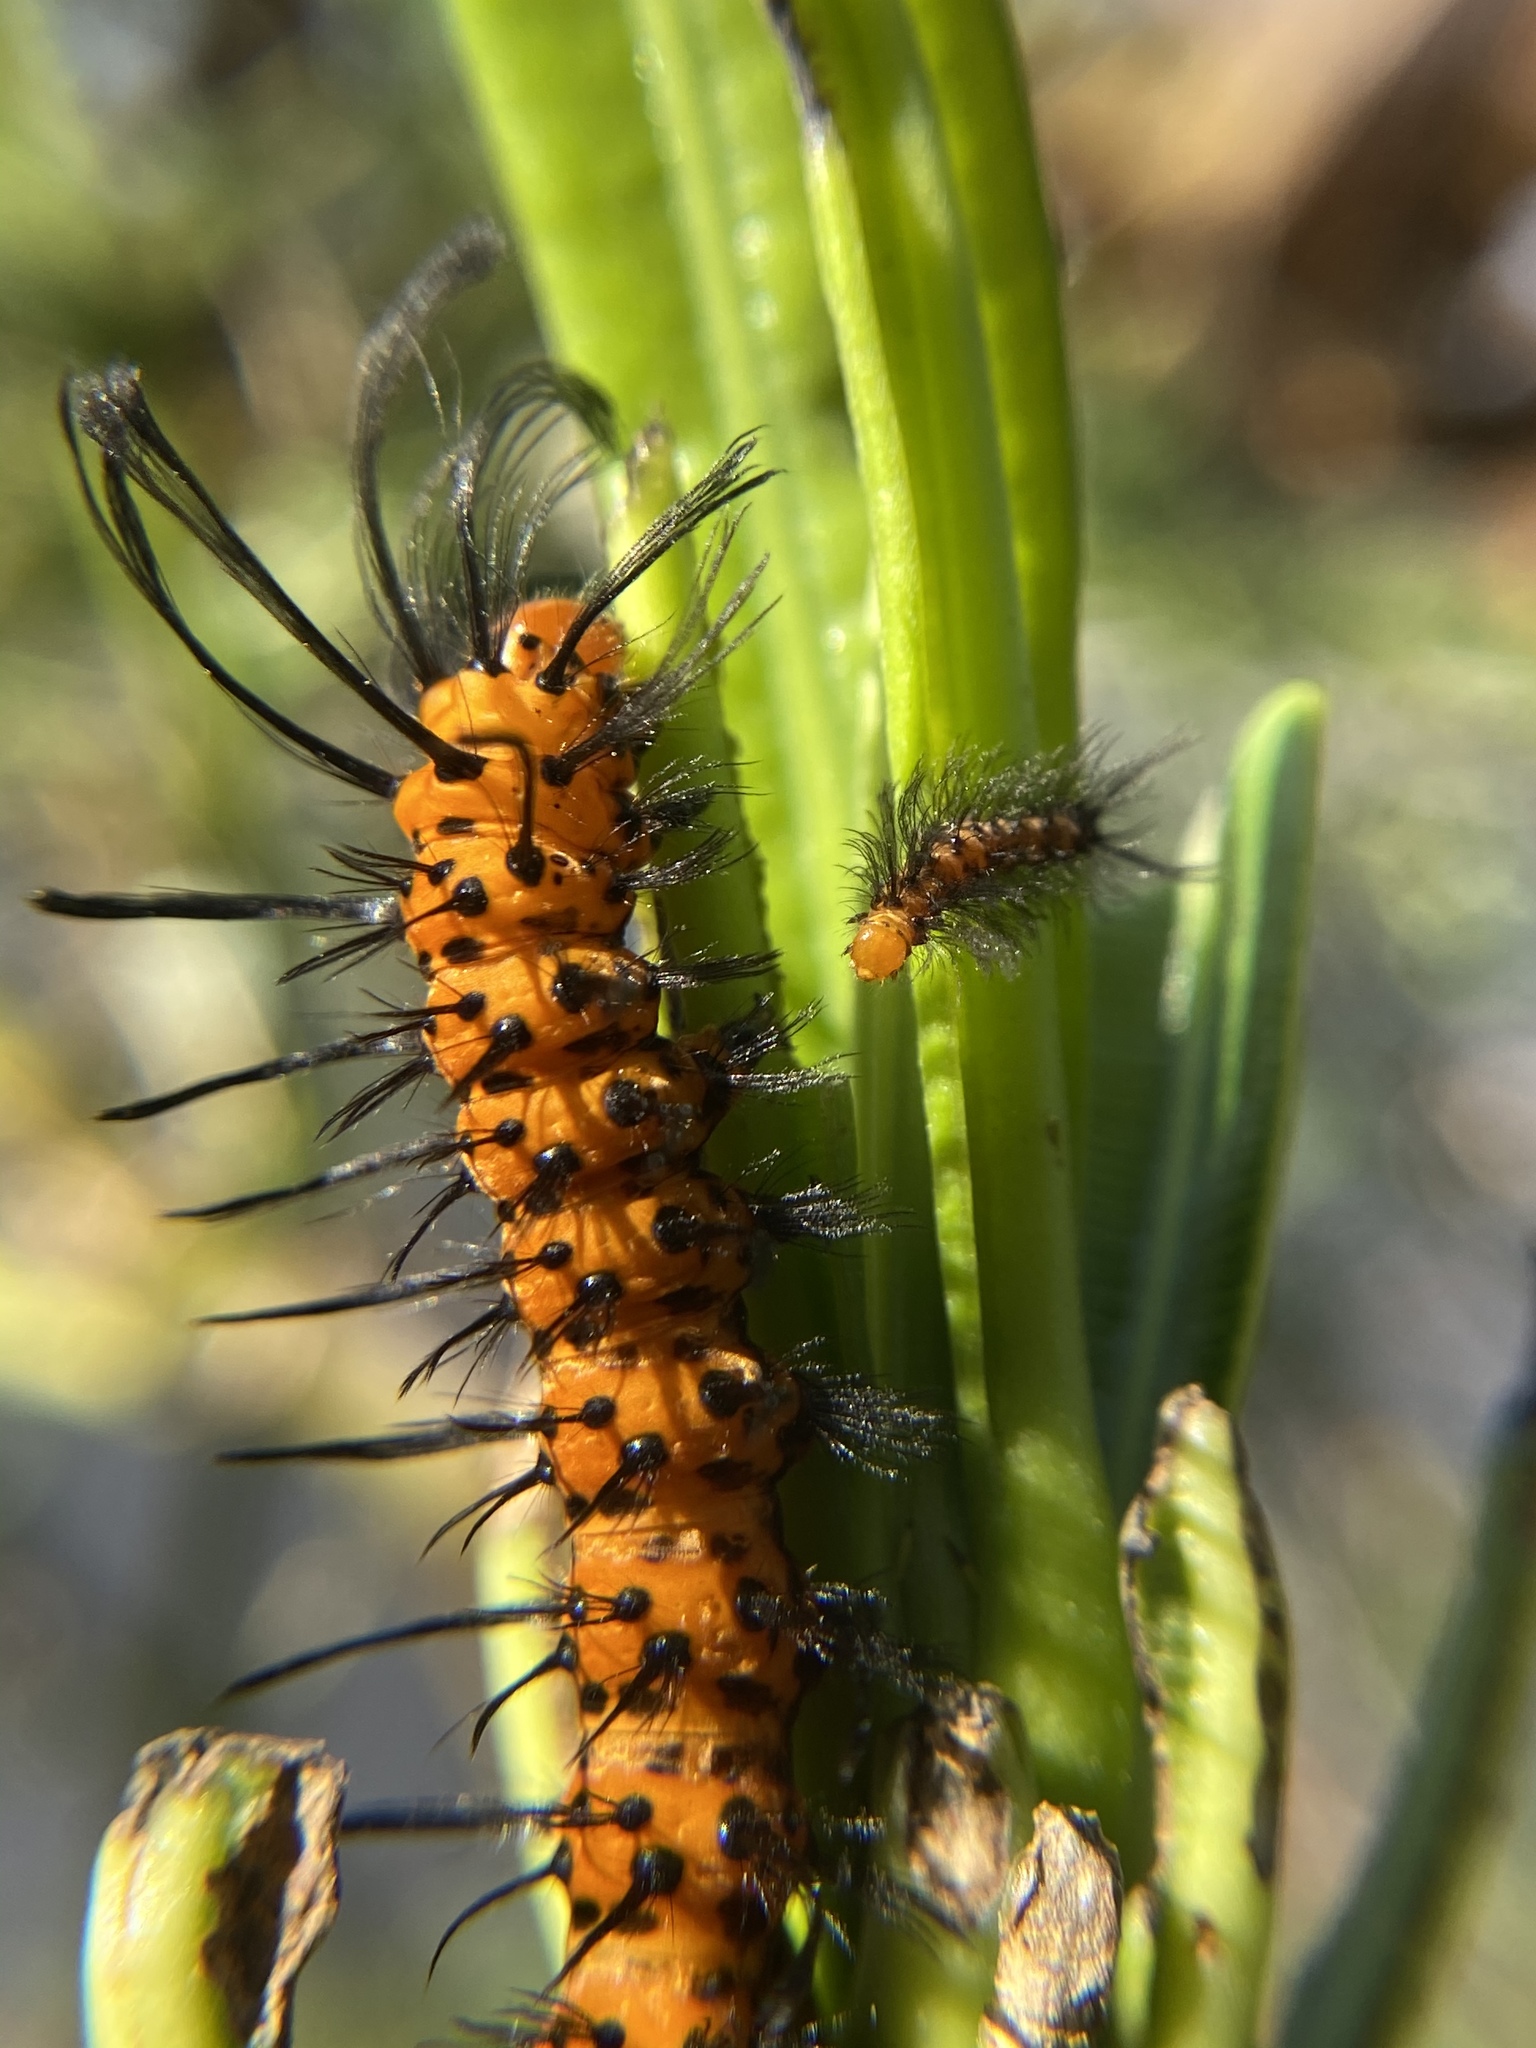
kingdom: Animalia
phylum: Arthropoda
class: Insecta
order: Lepidoptera
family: Erebidae
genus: Syntomeida
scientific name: Syntomeida epilais
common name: Polka-dot wasp moth
